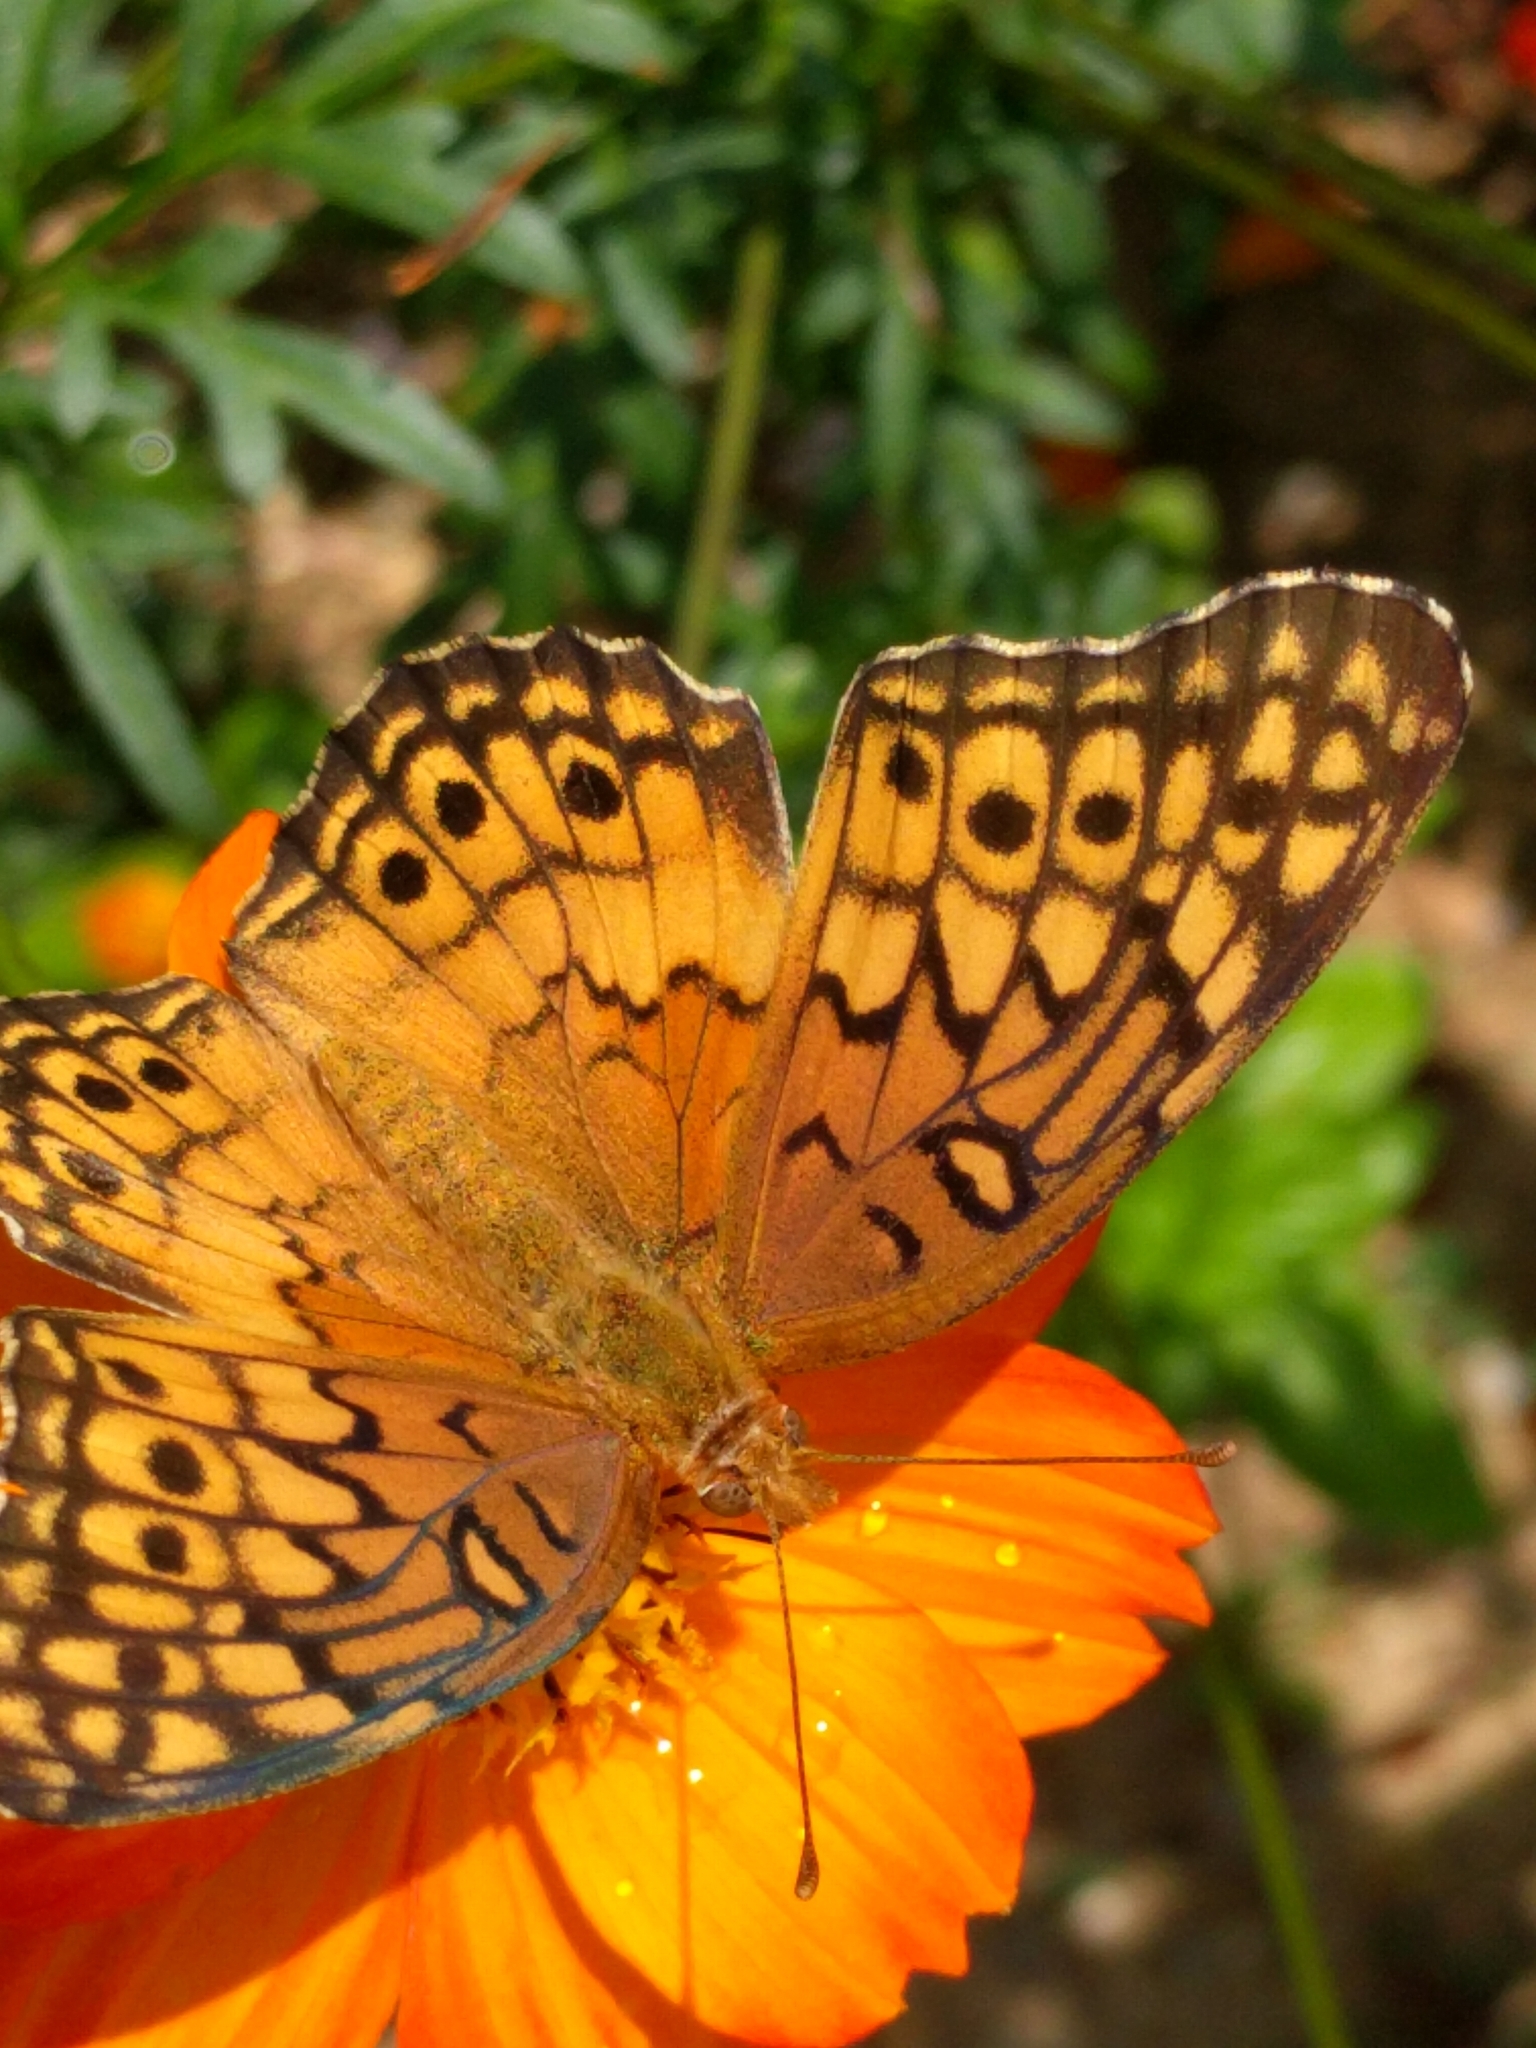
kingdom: Animalia
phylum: Arthropoda
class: Insecta
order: Lepidoptera
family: Nymphalidae
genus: Euptoieta
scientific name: Euptoieta claudia
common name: Variegated fritillary
